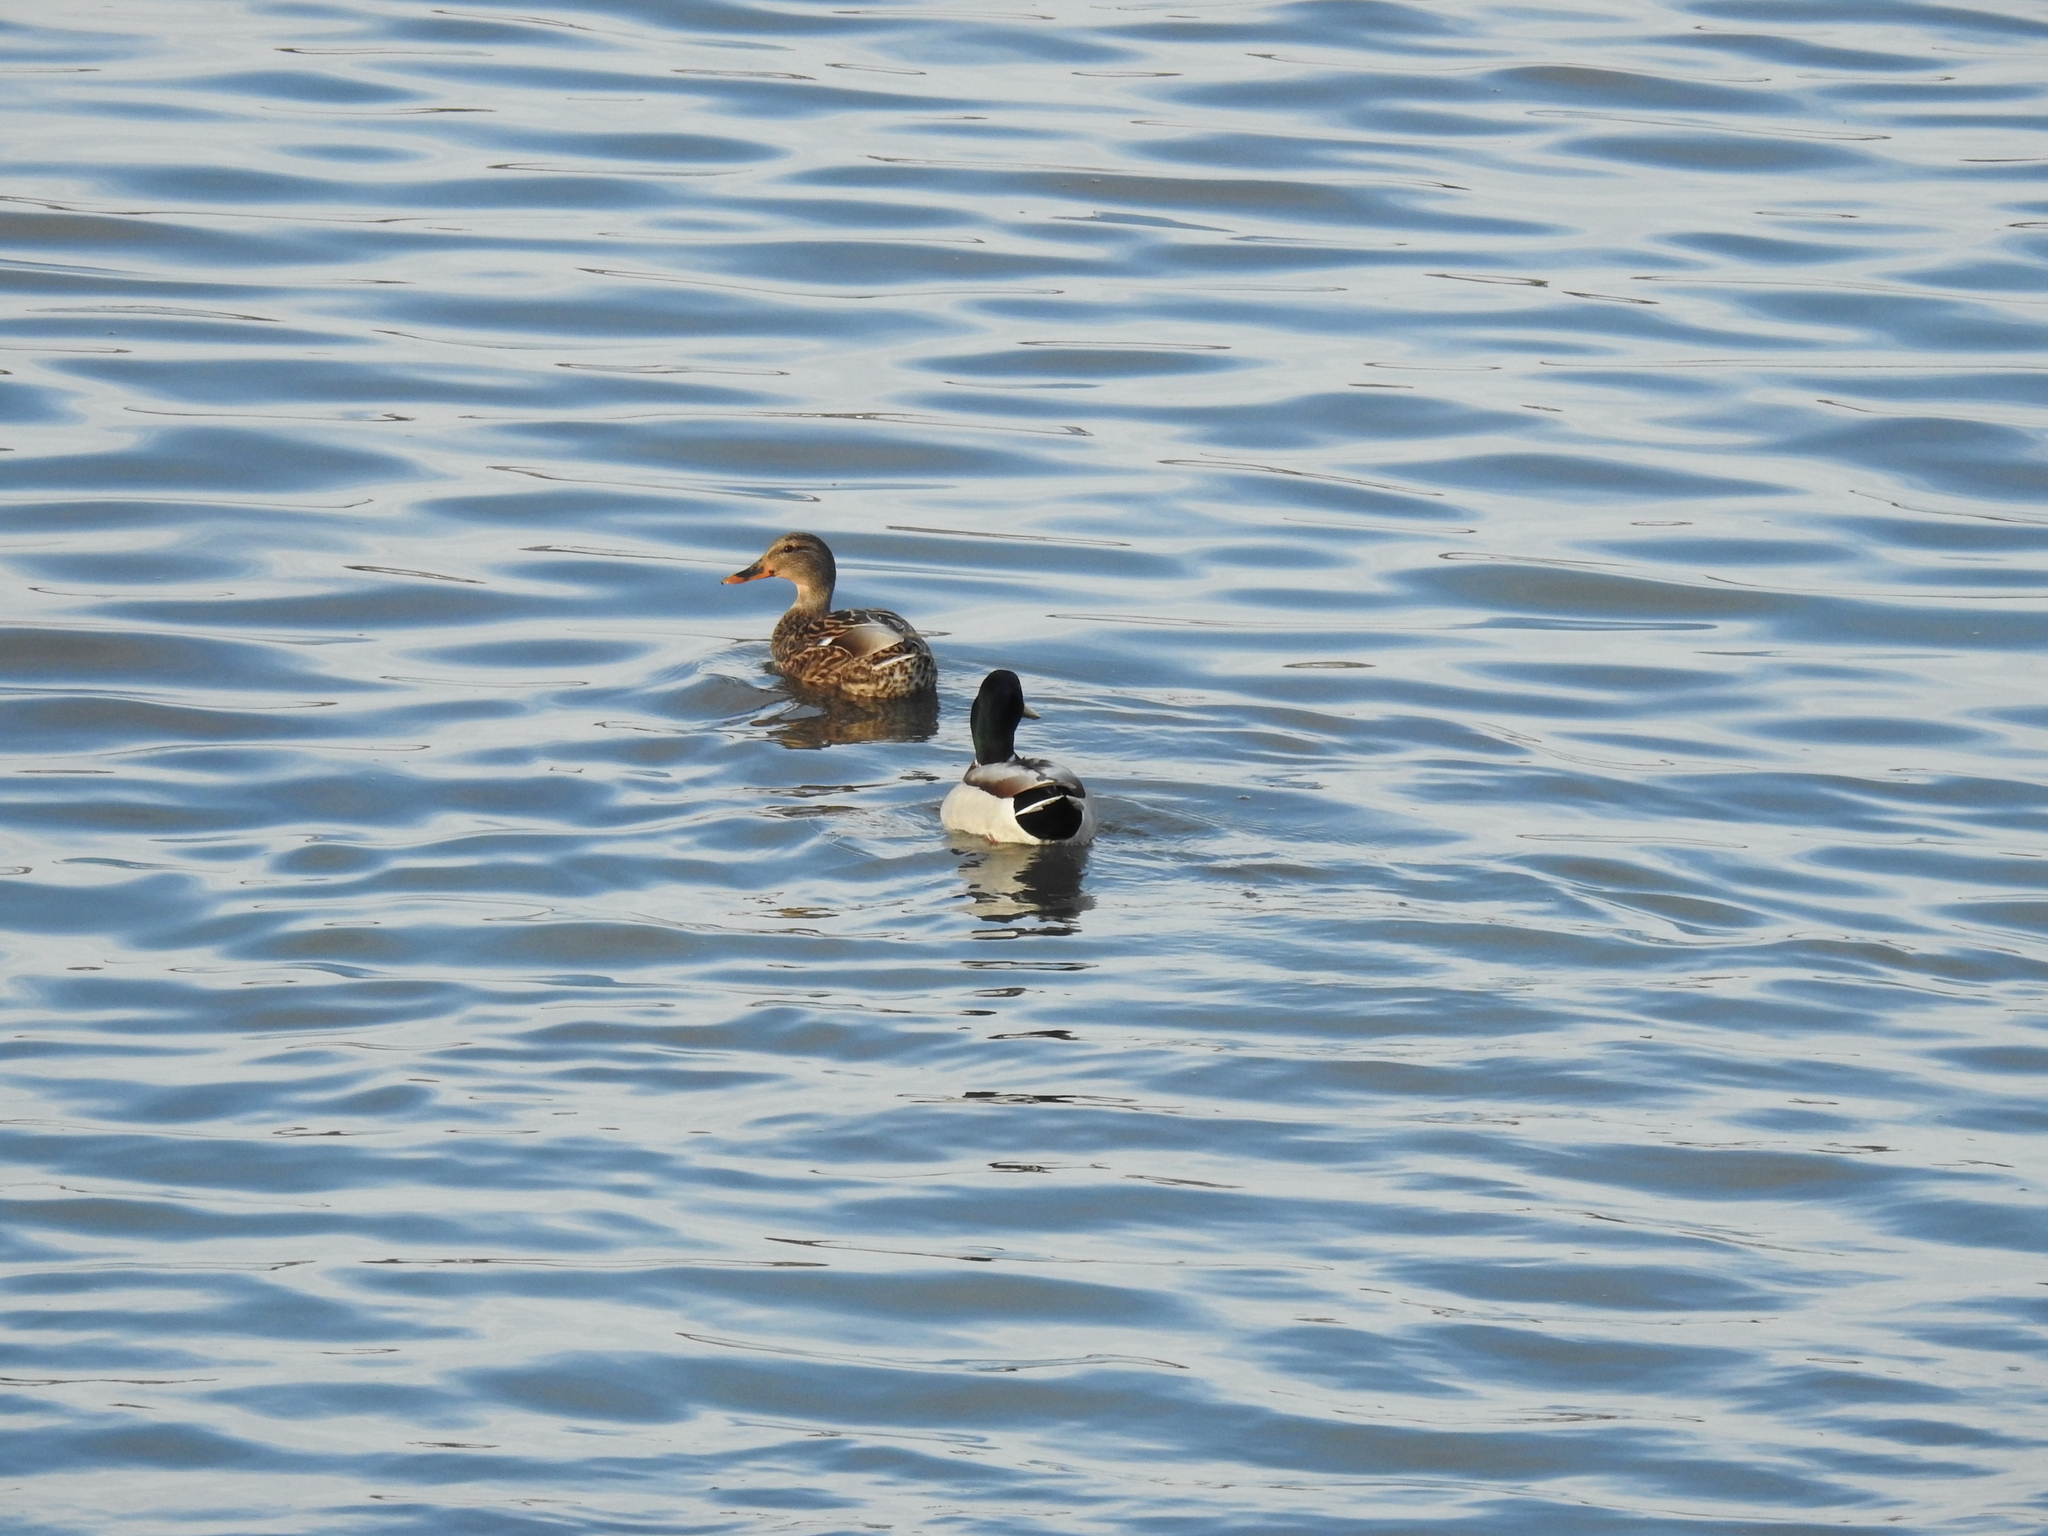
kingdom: Animalia
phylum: Chordata
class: Aves
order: Anseriformes
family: Anatidae
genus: Anas
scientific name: Anas platyrhynchos
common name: Mallard
